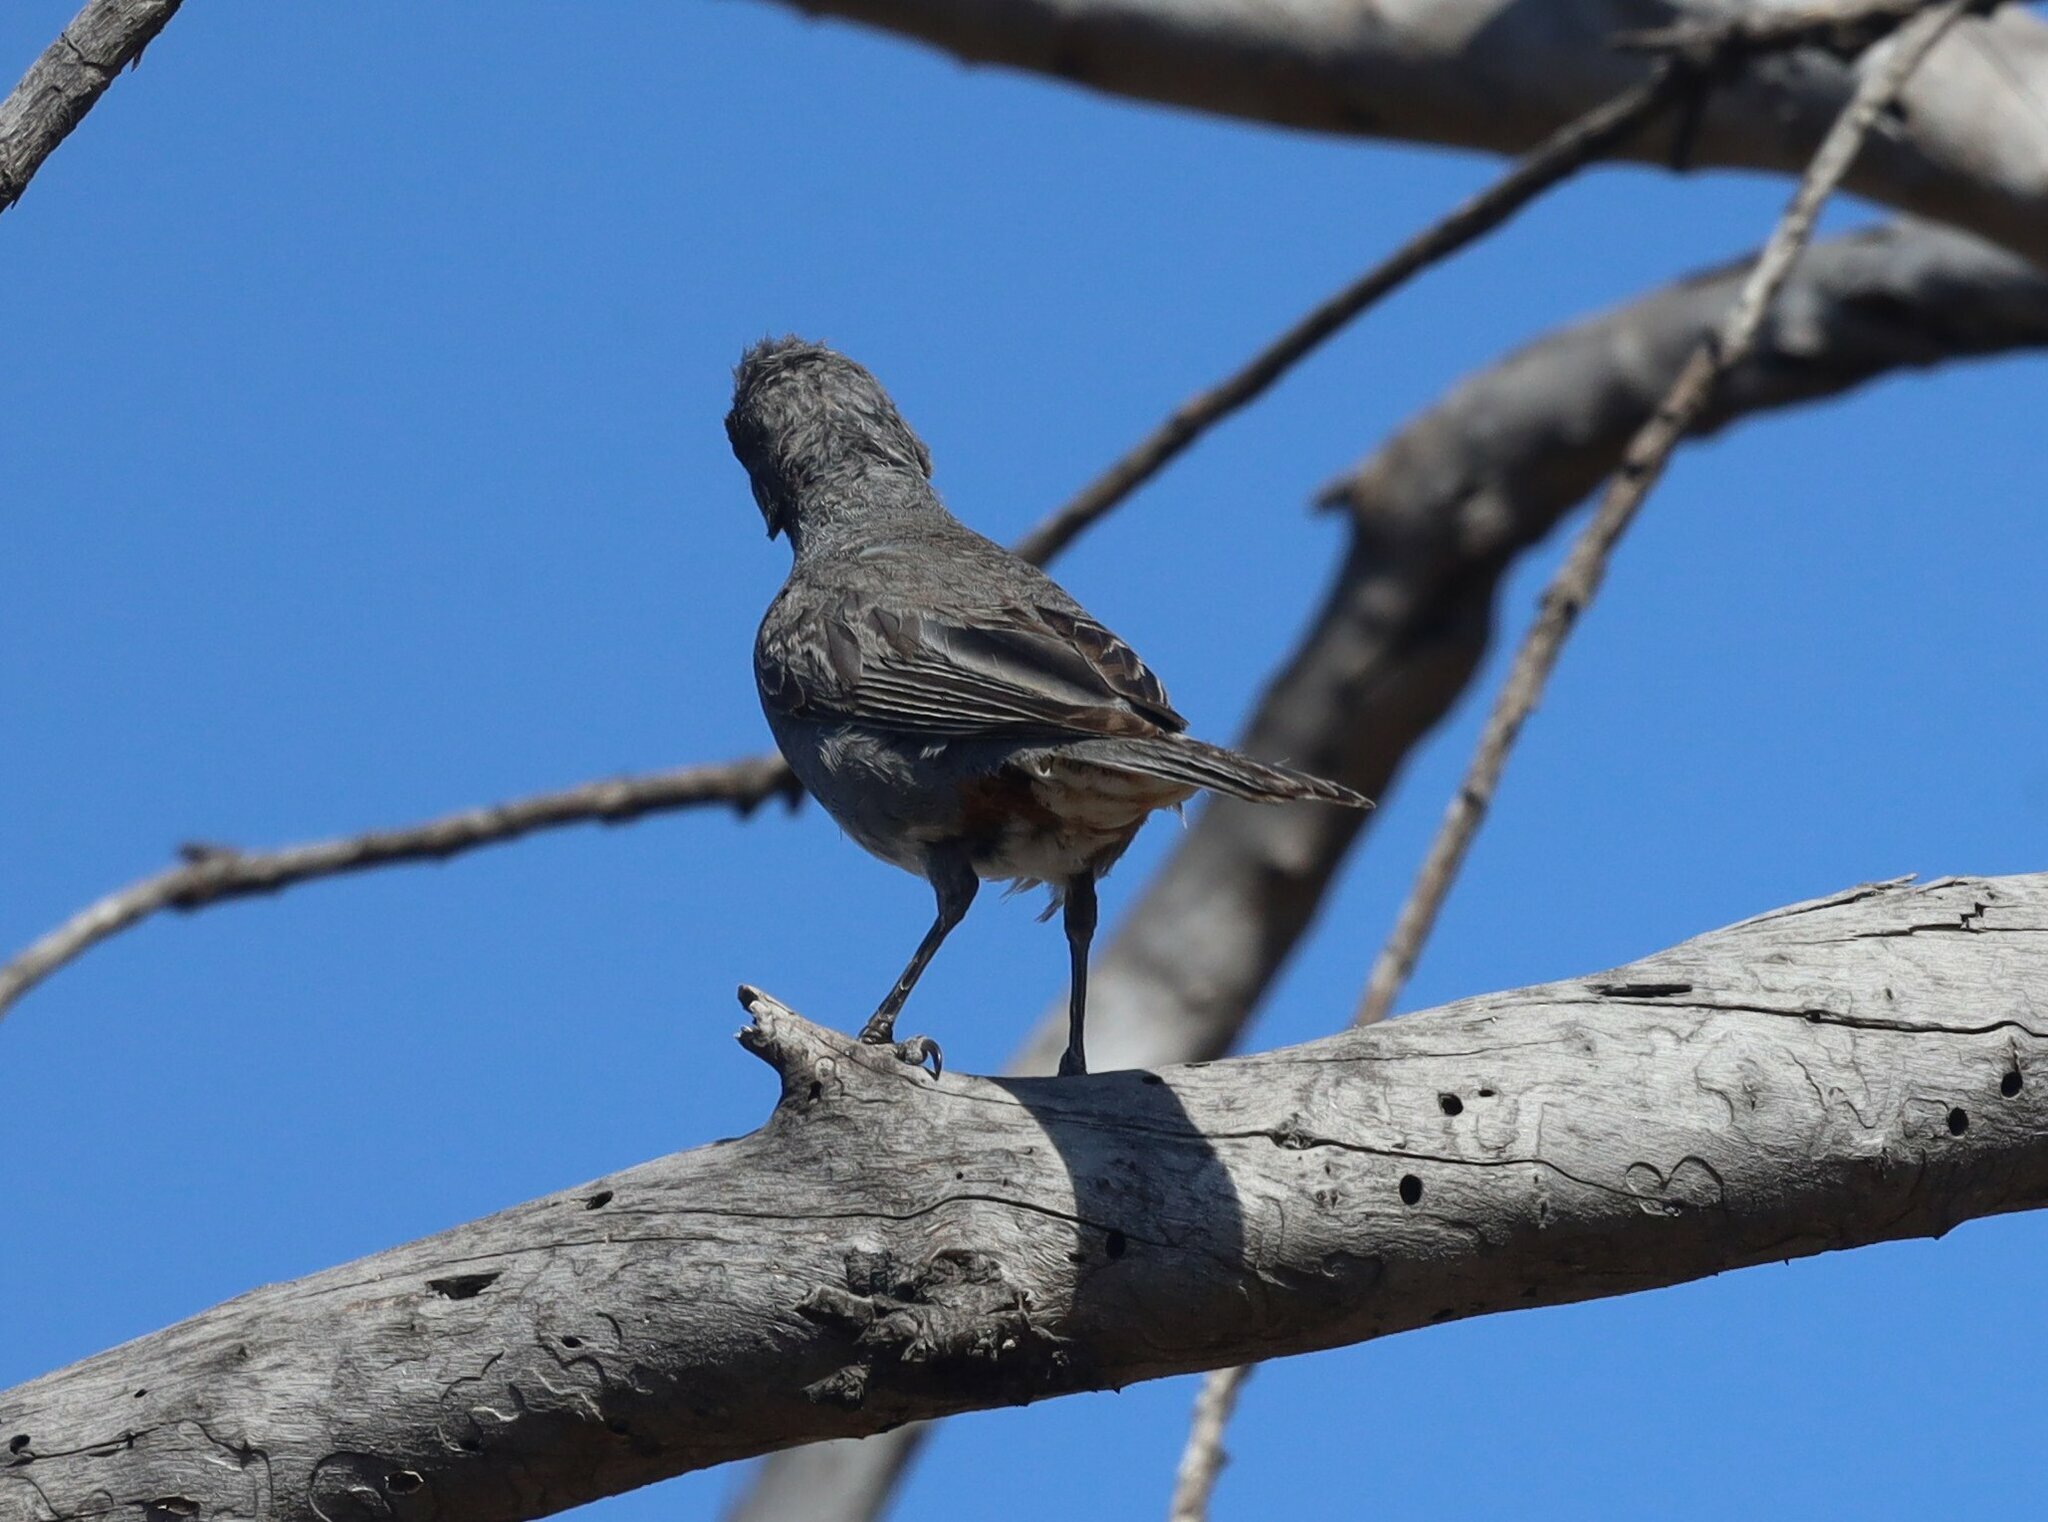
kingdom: Animalia
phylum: Chordata
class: Aves
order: Passeriformes
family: Thraupidae
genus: Diuca
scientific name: Diuca diuca
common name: Common diuca finch
